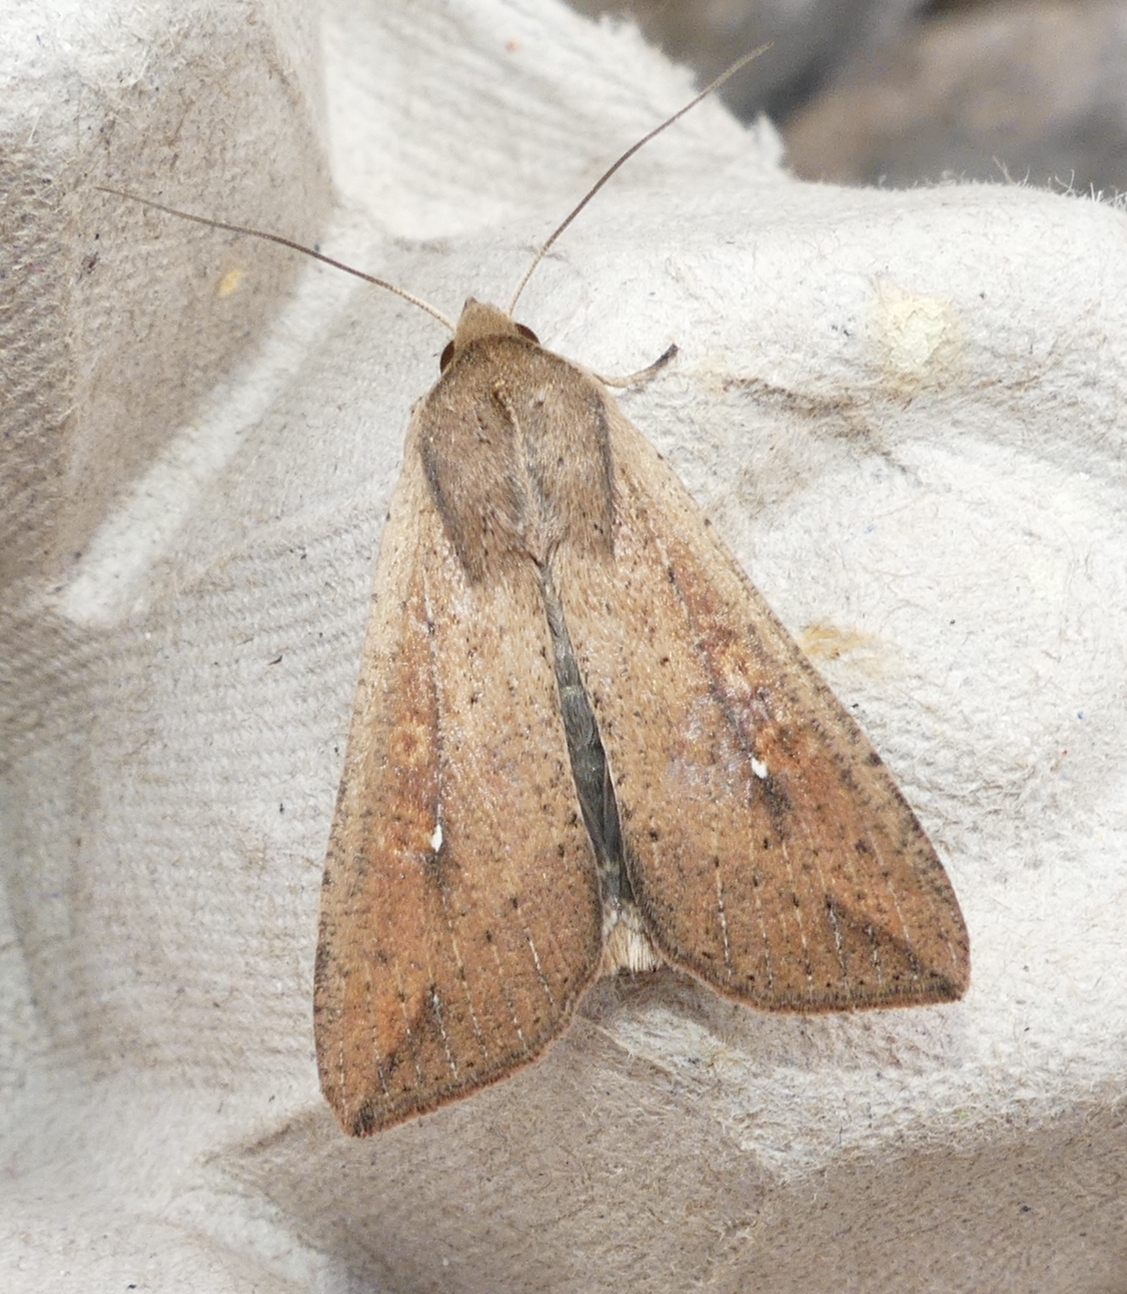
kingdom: Animalia
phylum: Arthropoda
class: Insecta
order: Lepidoptera
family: Noctuidae
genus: Mythimna
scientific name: Mythimna unipuncta
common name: White-speck
